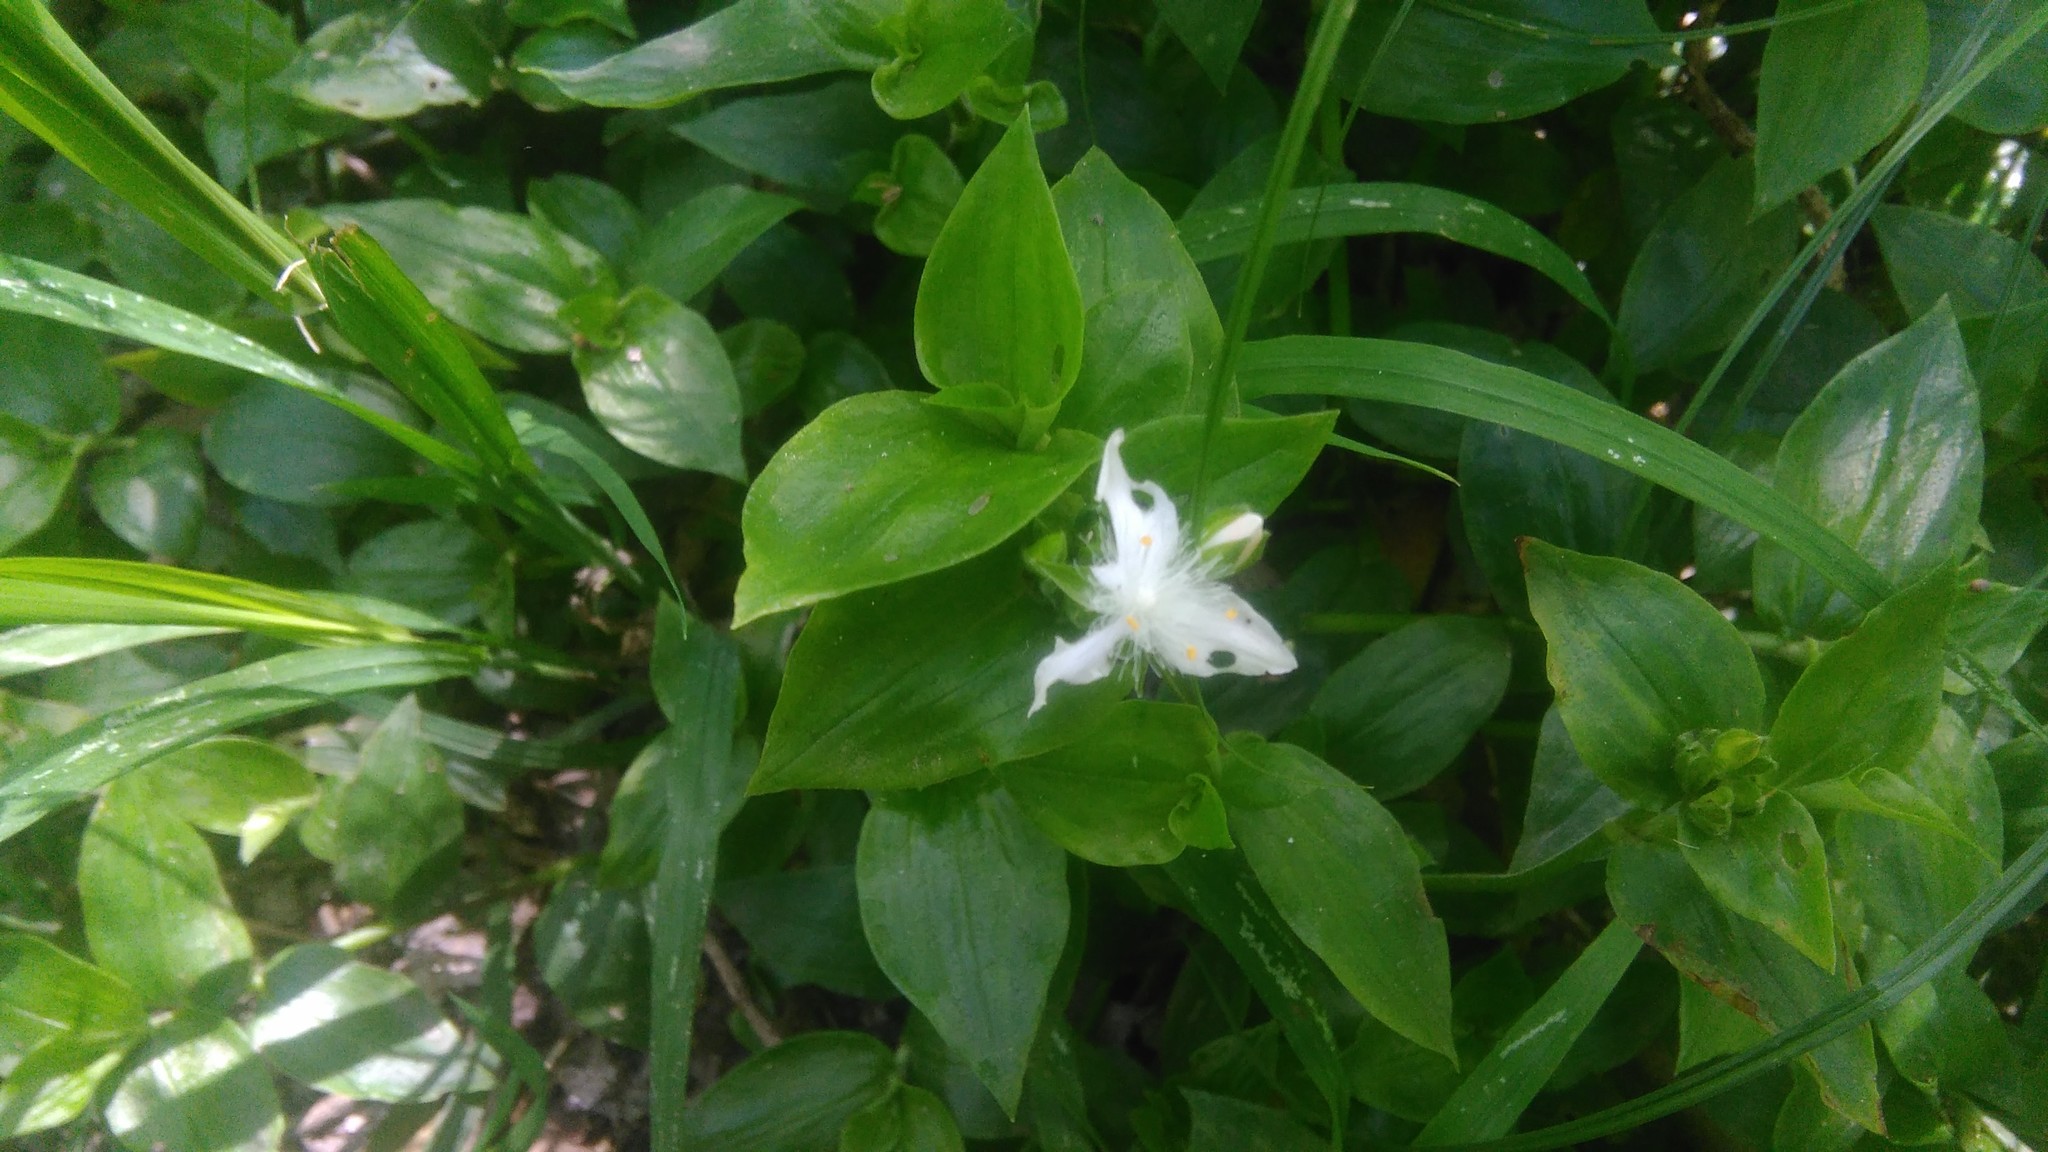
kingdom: Plantae
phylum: Tracheophyta
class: Liliopsida
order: Commelinales
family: Commelinaceae
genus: Tradescantia
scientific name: Tradescantia fluminensis
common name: Wandering-jew
